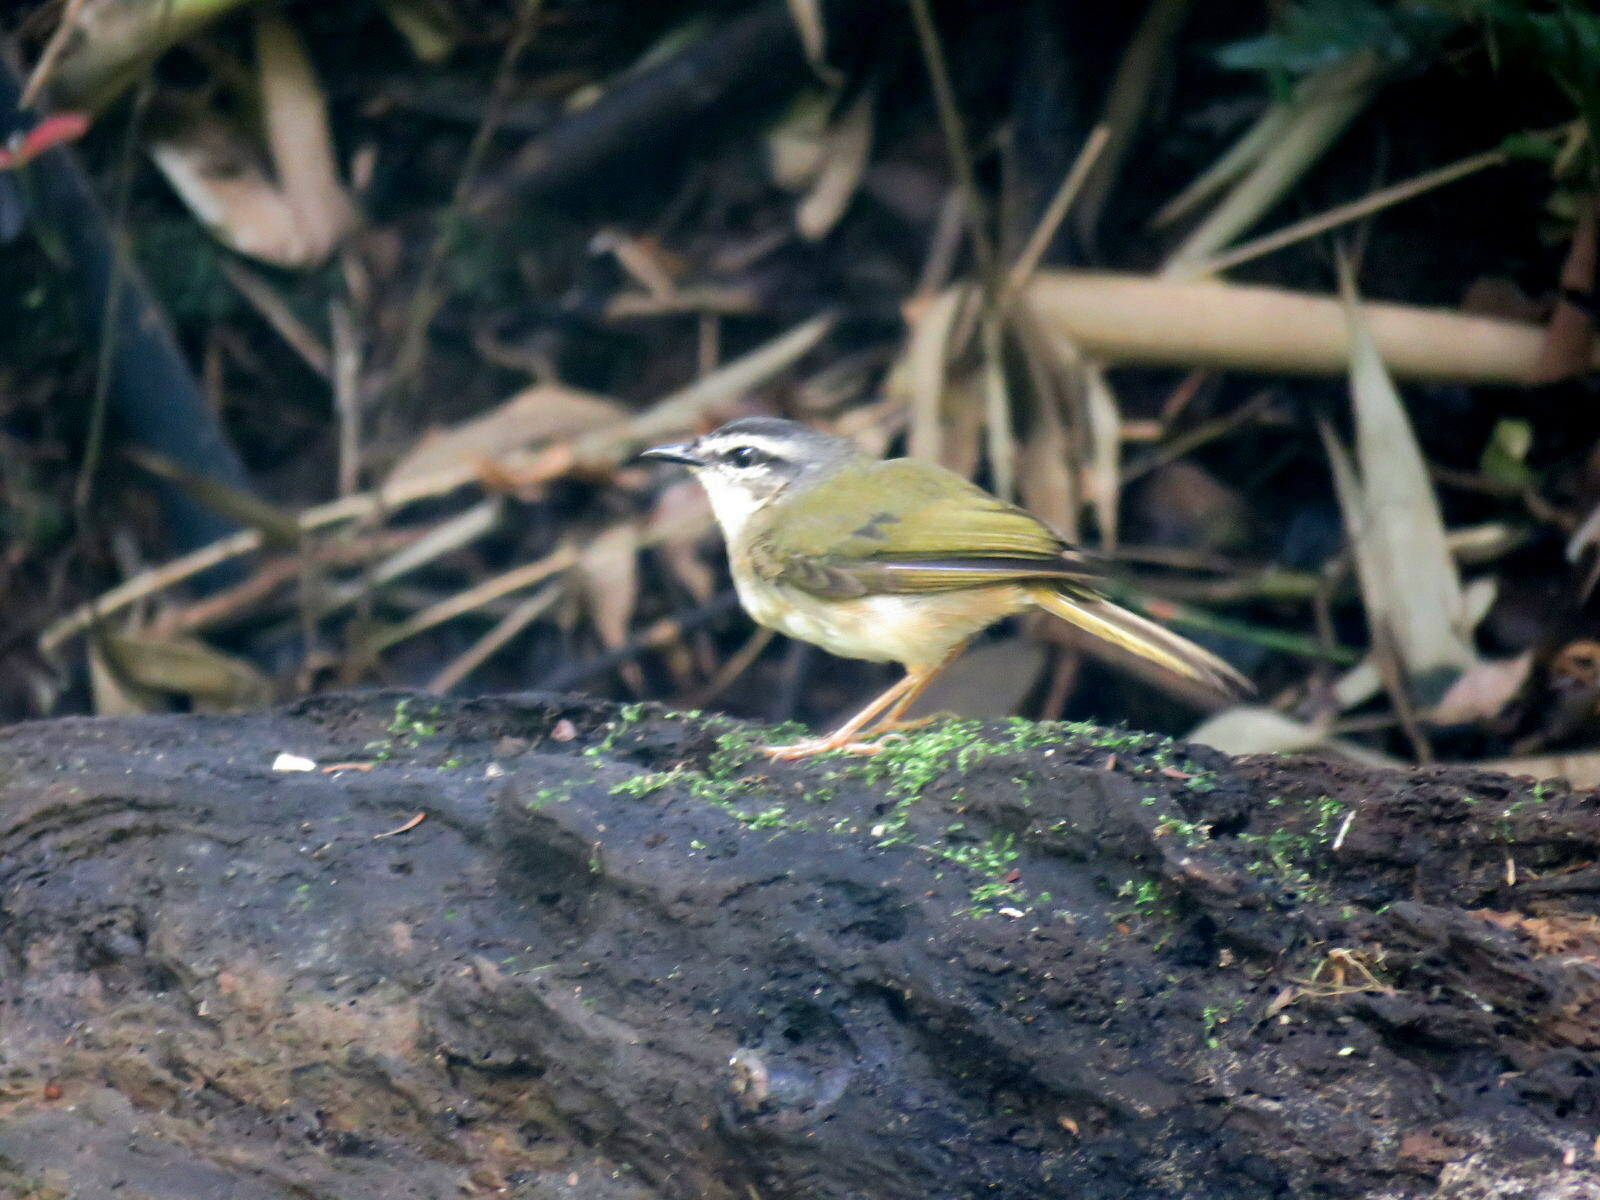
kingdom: Animalia
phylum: Chordata
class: Aves
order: Passeriformes
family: Parulidae
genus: Myiothlypis
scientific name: Myiothlypis rivularis
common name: Riverbank warbler
